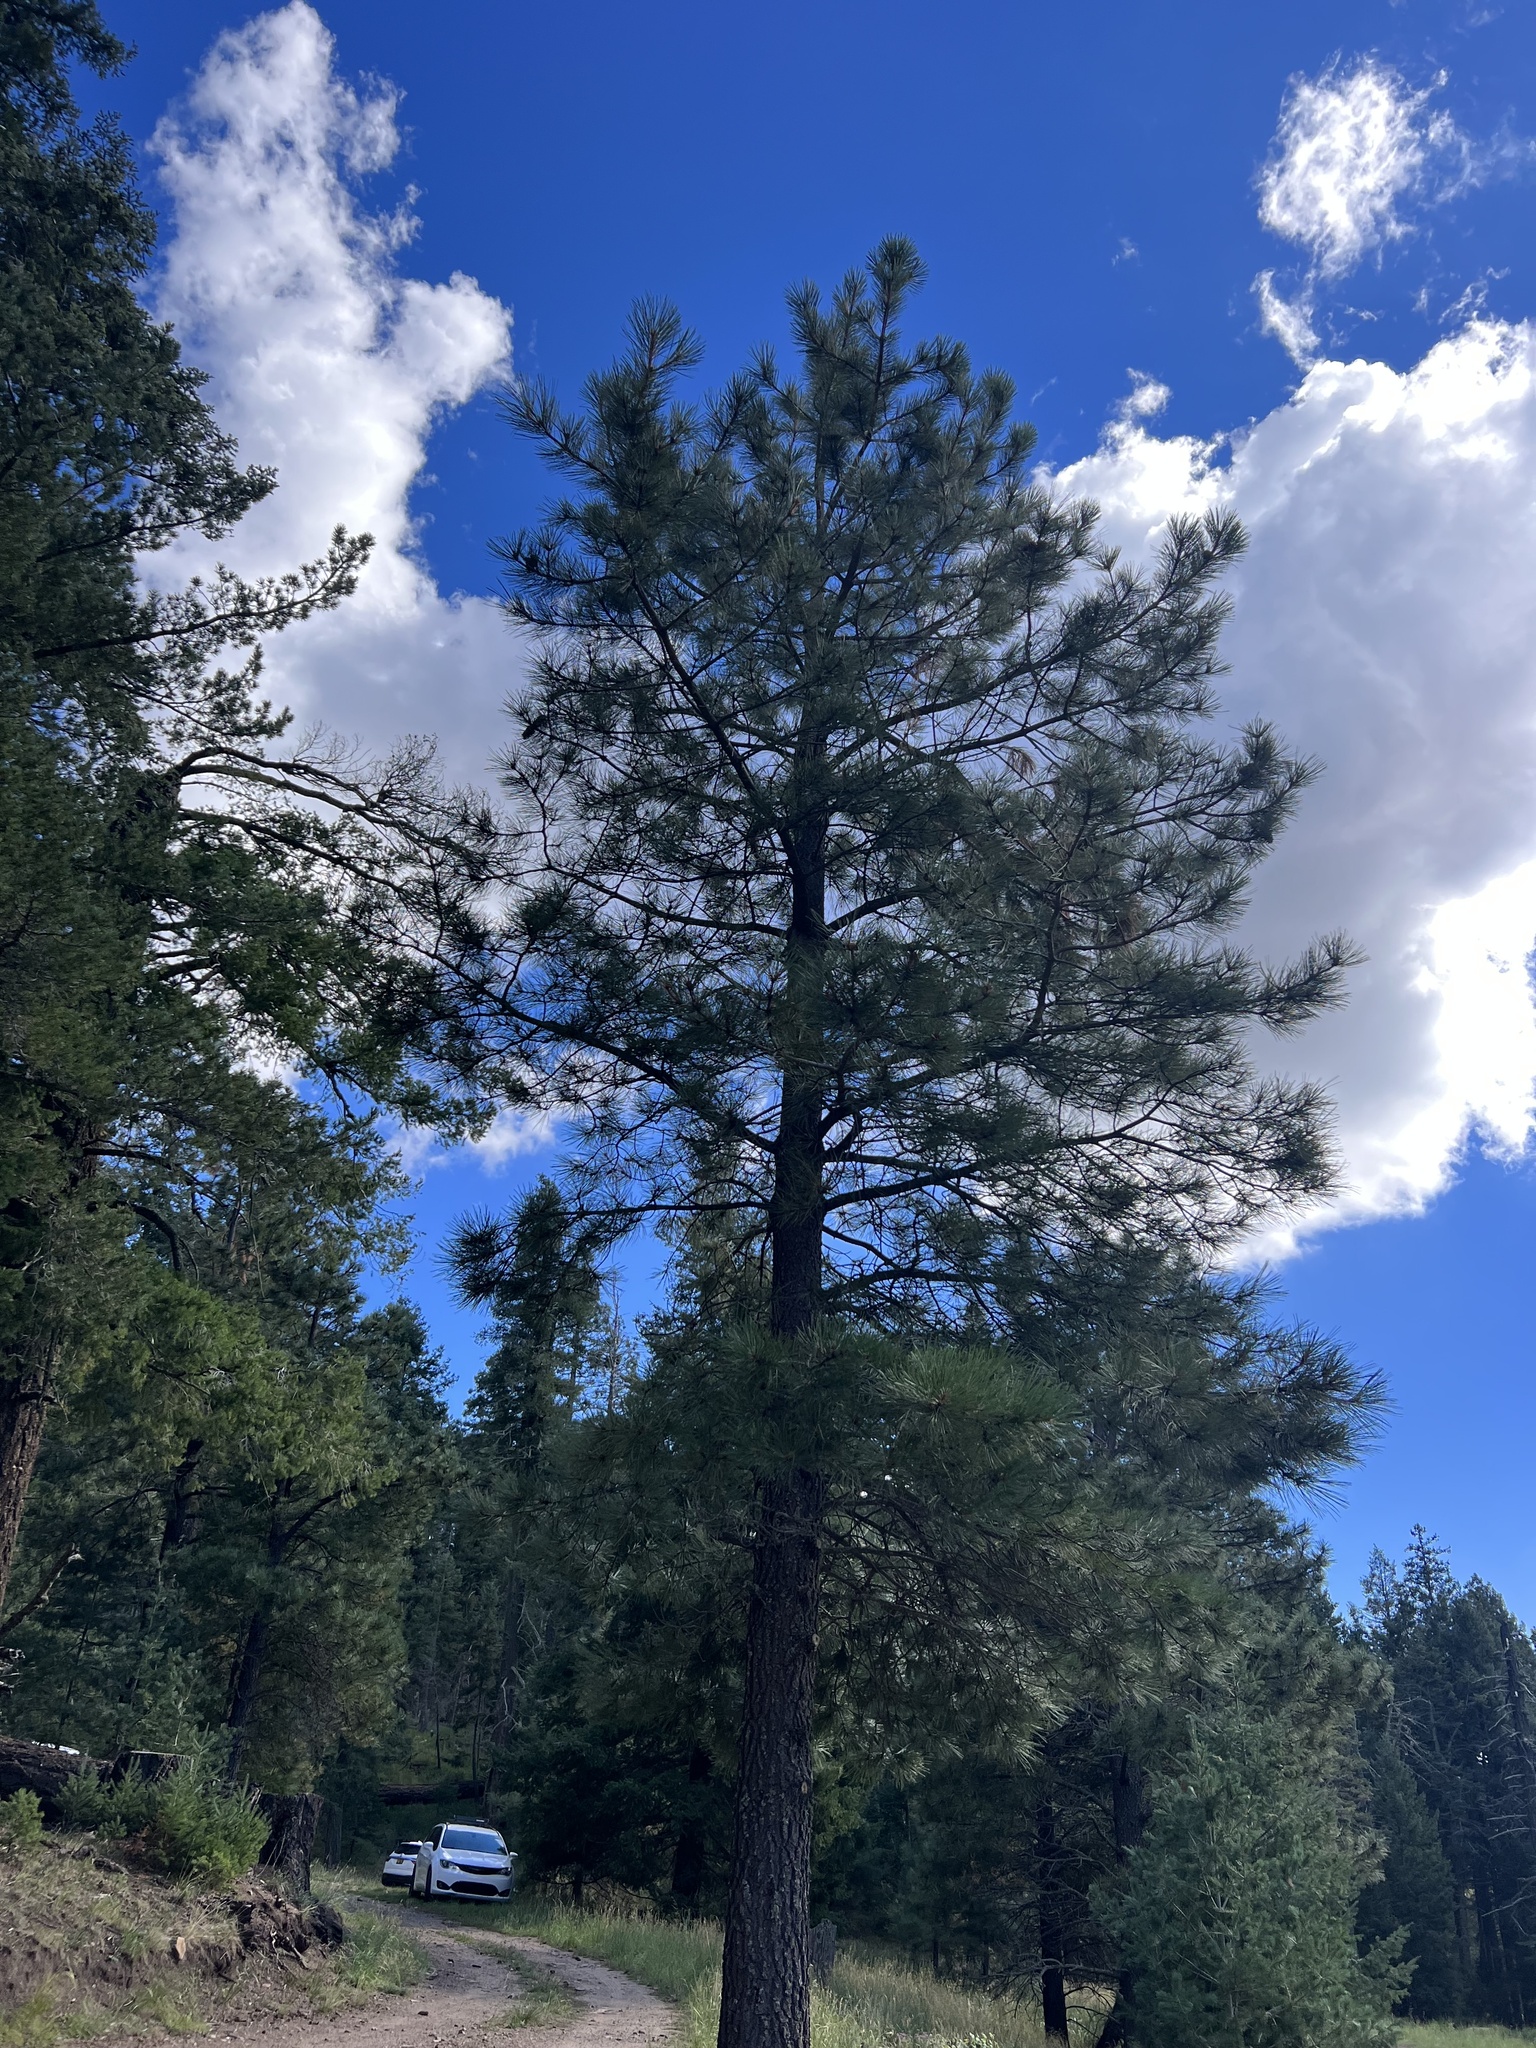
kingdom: Plantae
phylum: Tracheophyta
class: Pinopsida
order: Pinales
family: Pinaceae
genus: Pinus
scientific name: Pinus ponderosa
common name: Western yellow-pine
